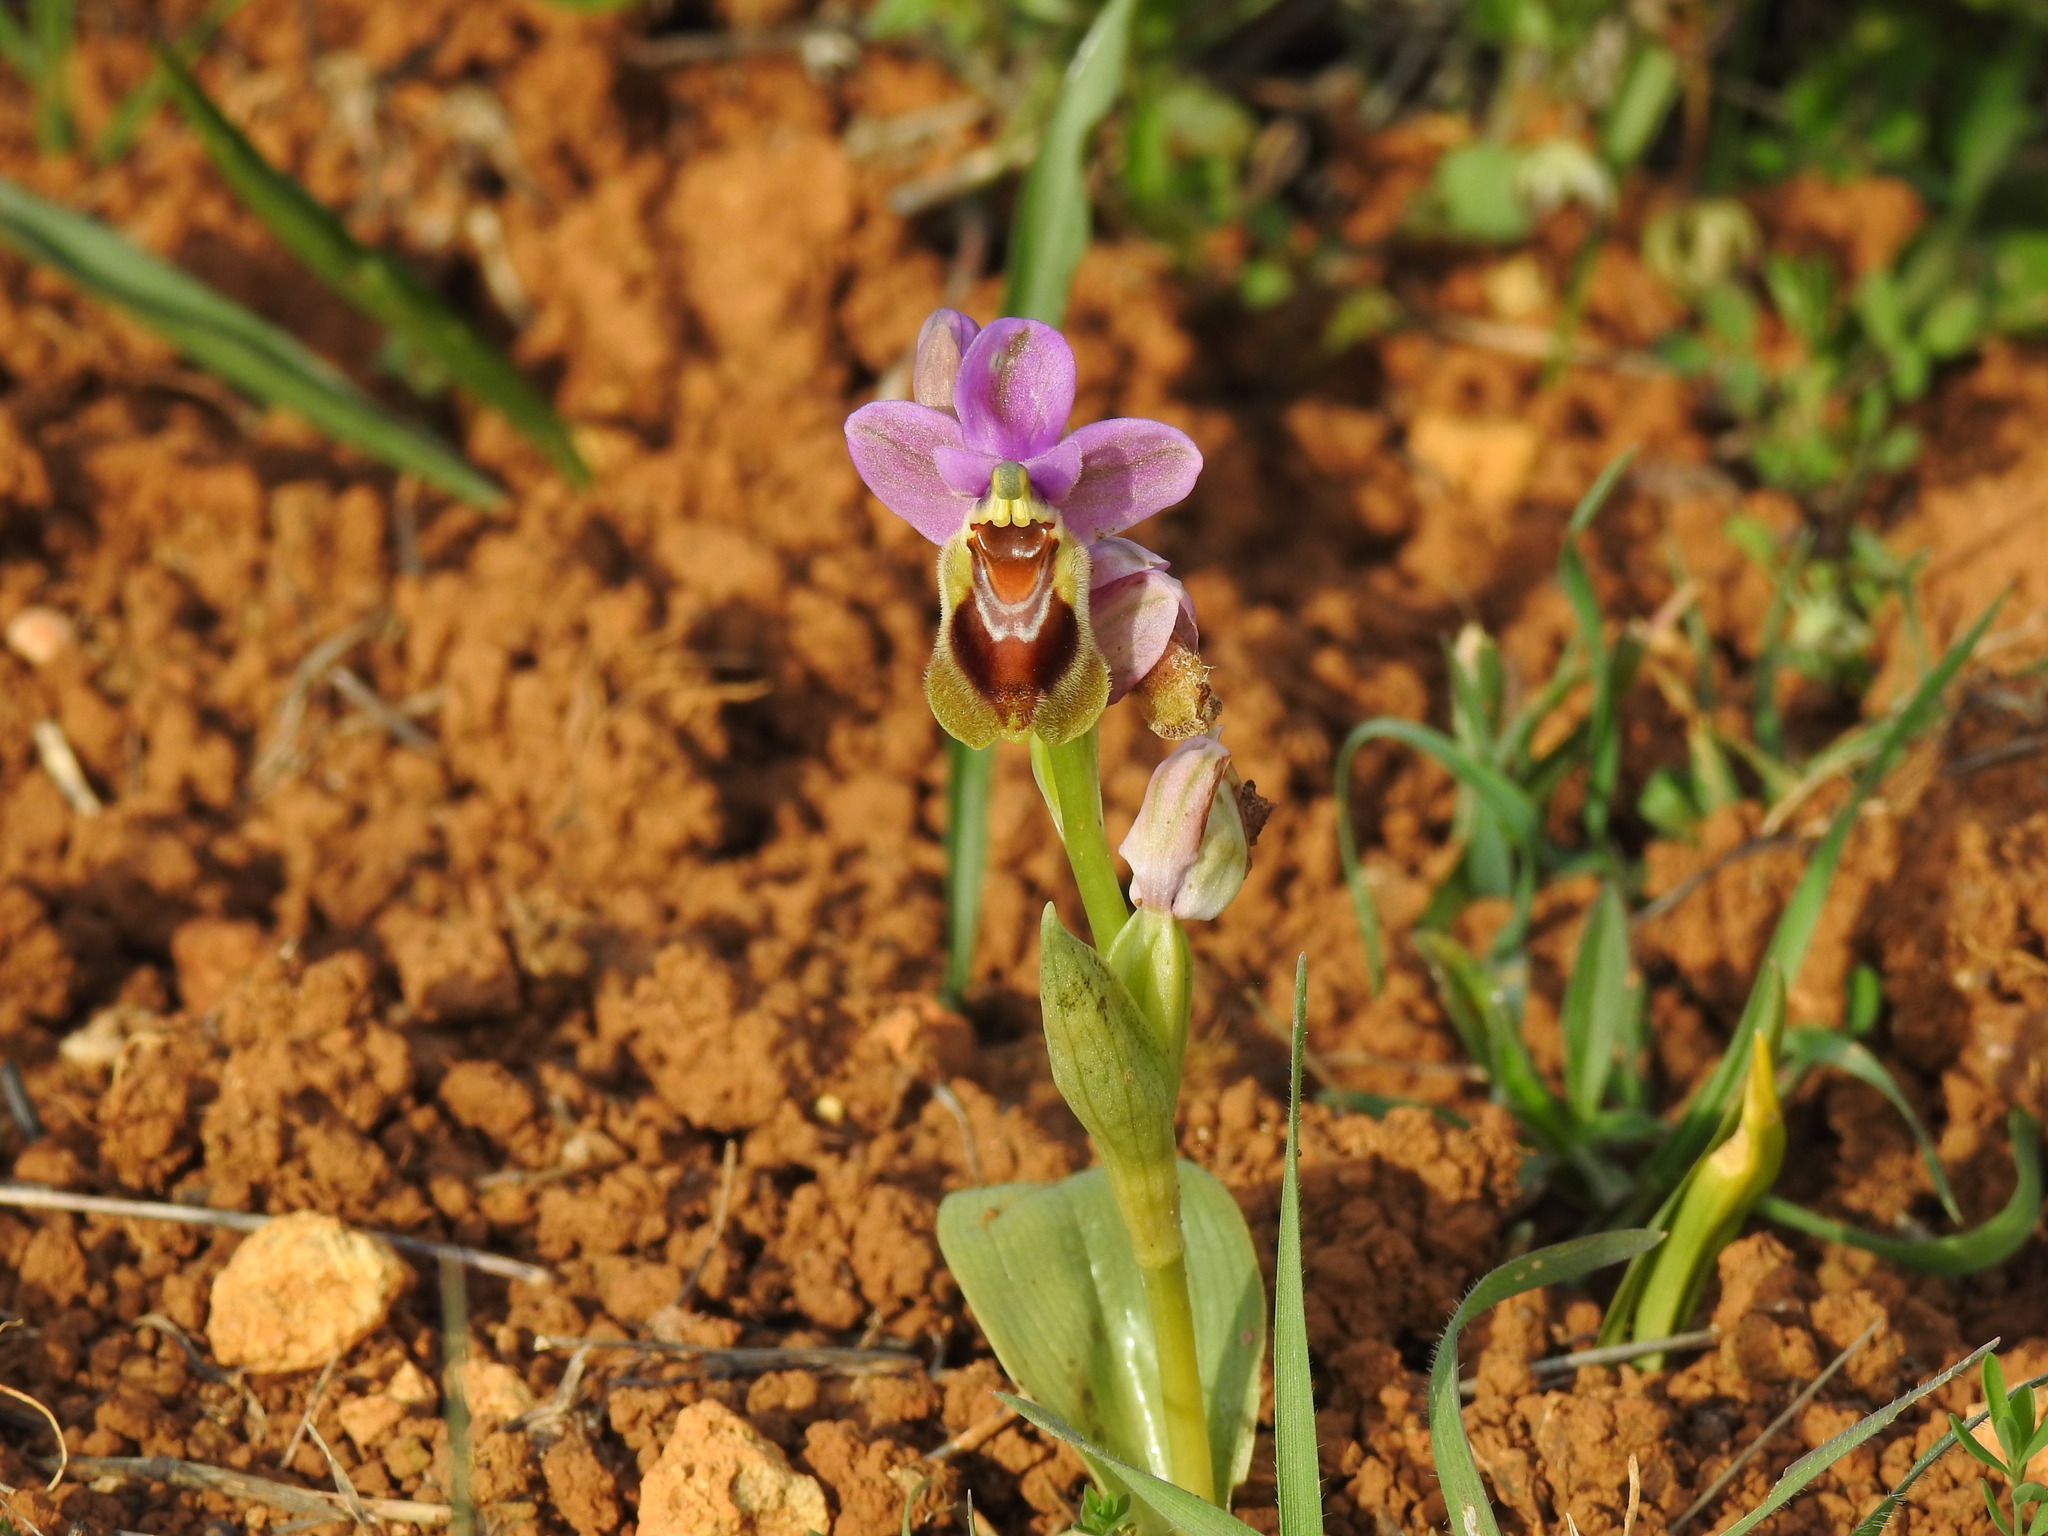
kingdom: Plantae
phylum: Tracheophyta
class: Liliopsida
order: Asparagales
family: Orchidaceae
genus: Ophrys
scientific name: Ophrys tenthredinifera
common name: Sawfly orchid
